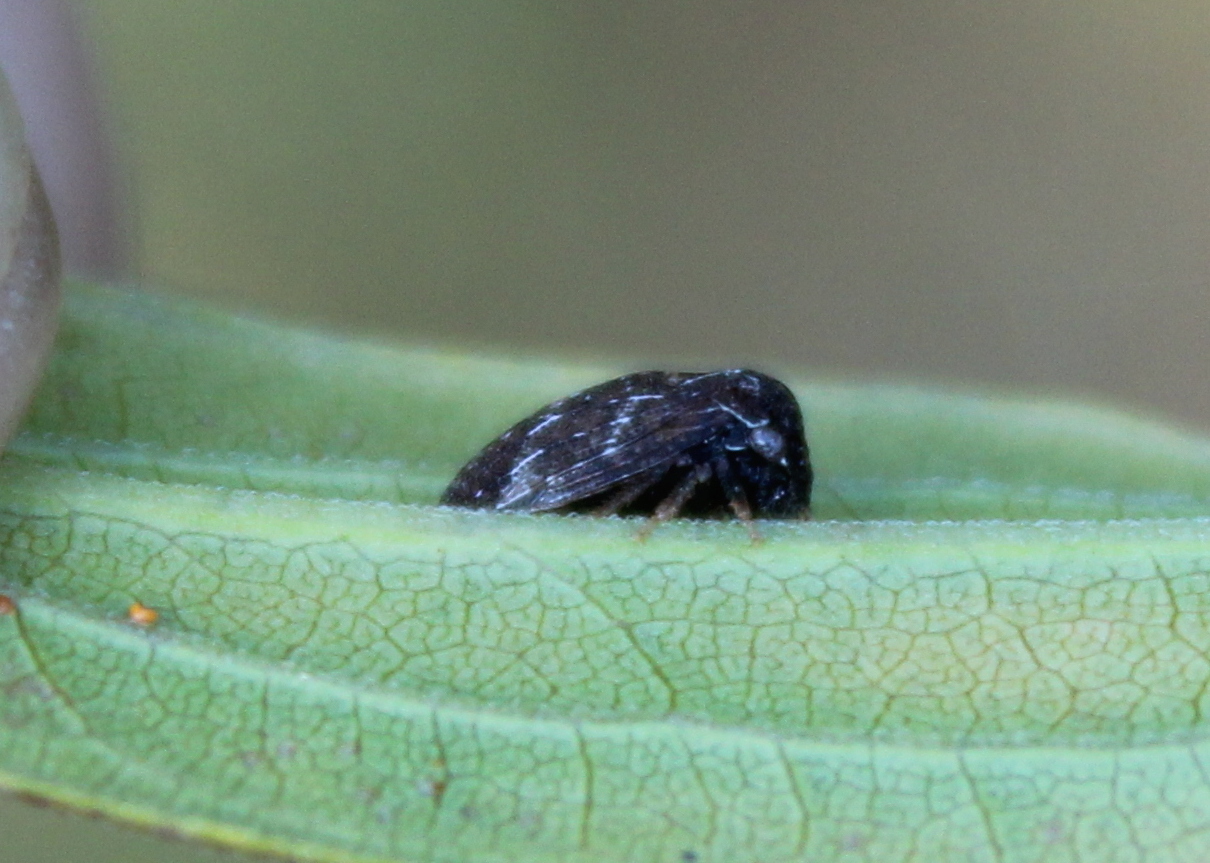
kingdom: Animalia
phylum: Arthropoda
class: Insecta
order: Hemiptera
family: Membracidae
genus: Publilia
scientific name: Publilia concava
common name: Aster treehopper
